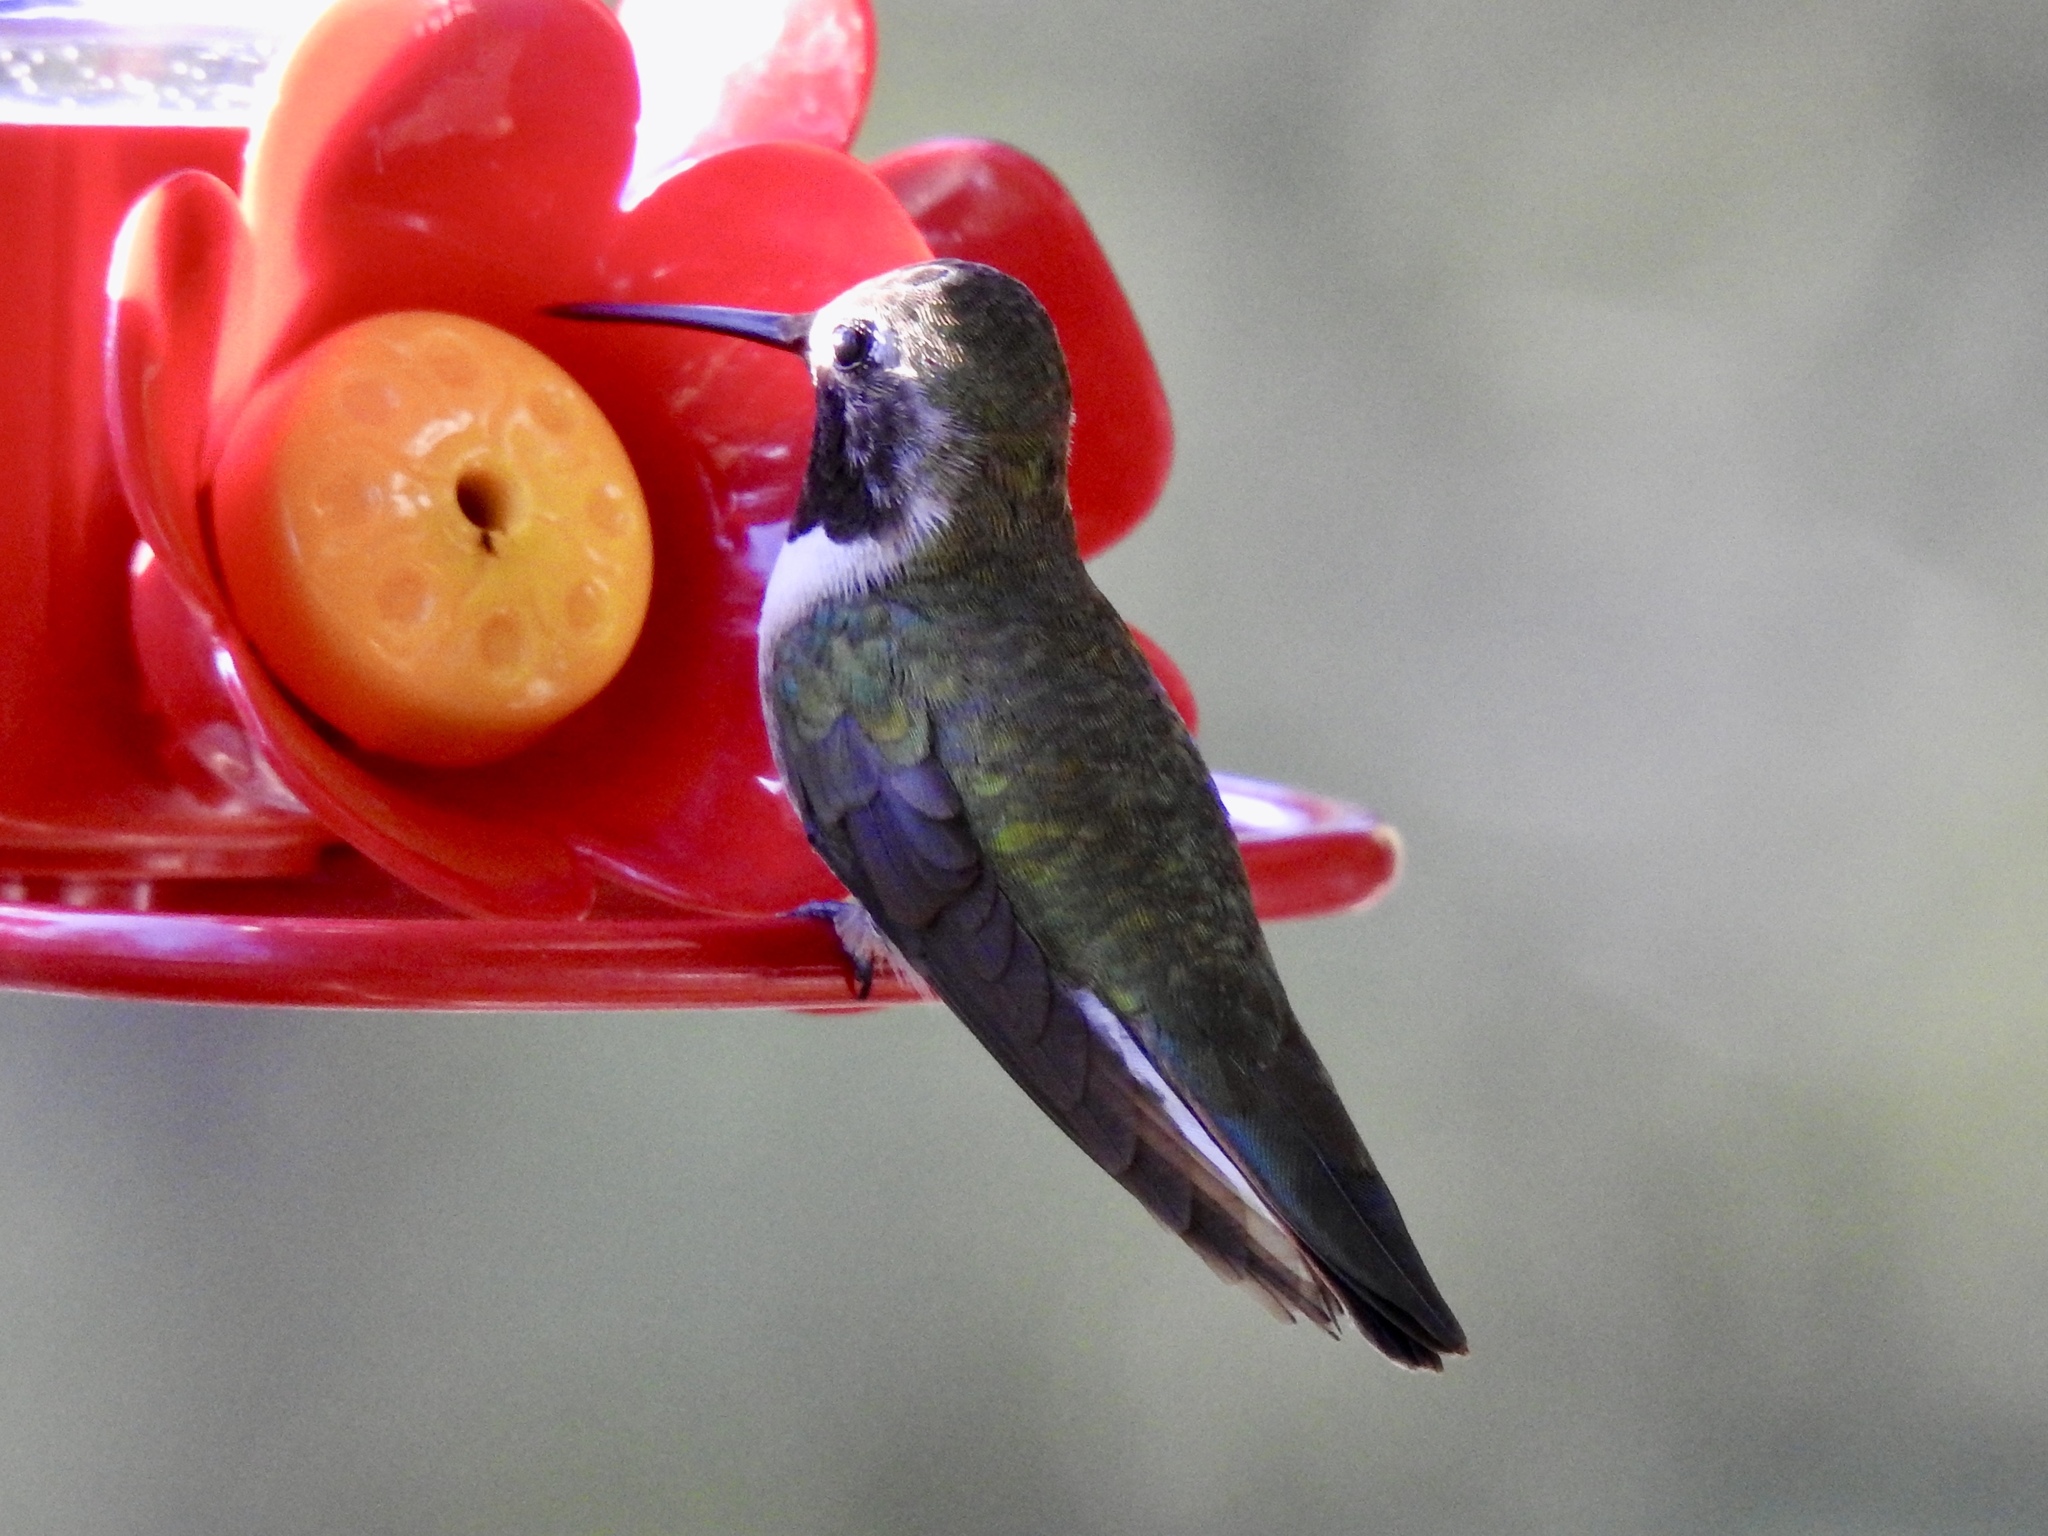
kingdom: Animalia
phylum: Chordata
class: Aves
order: Apodiformes
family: Trochilidae
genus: Archilochus
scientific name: Archilochus alexandri
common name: Black-chinned hummingbird
